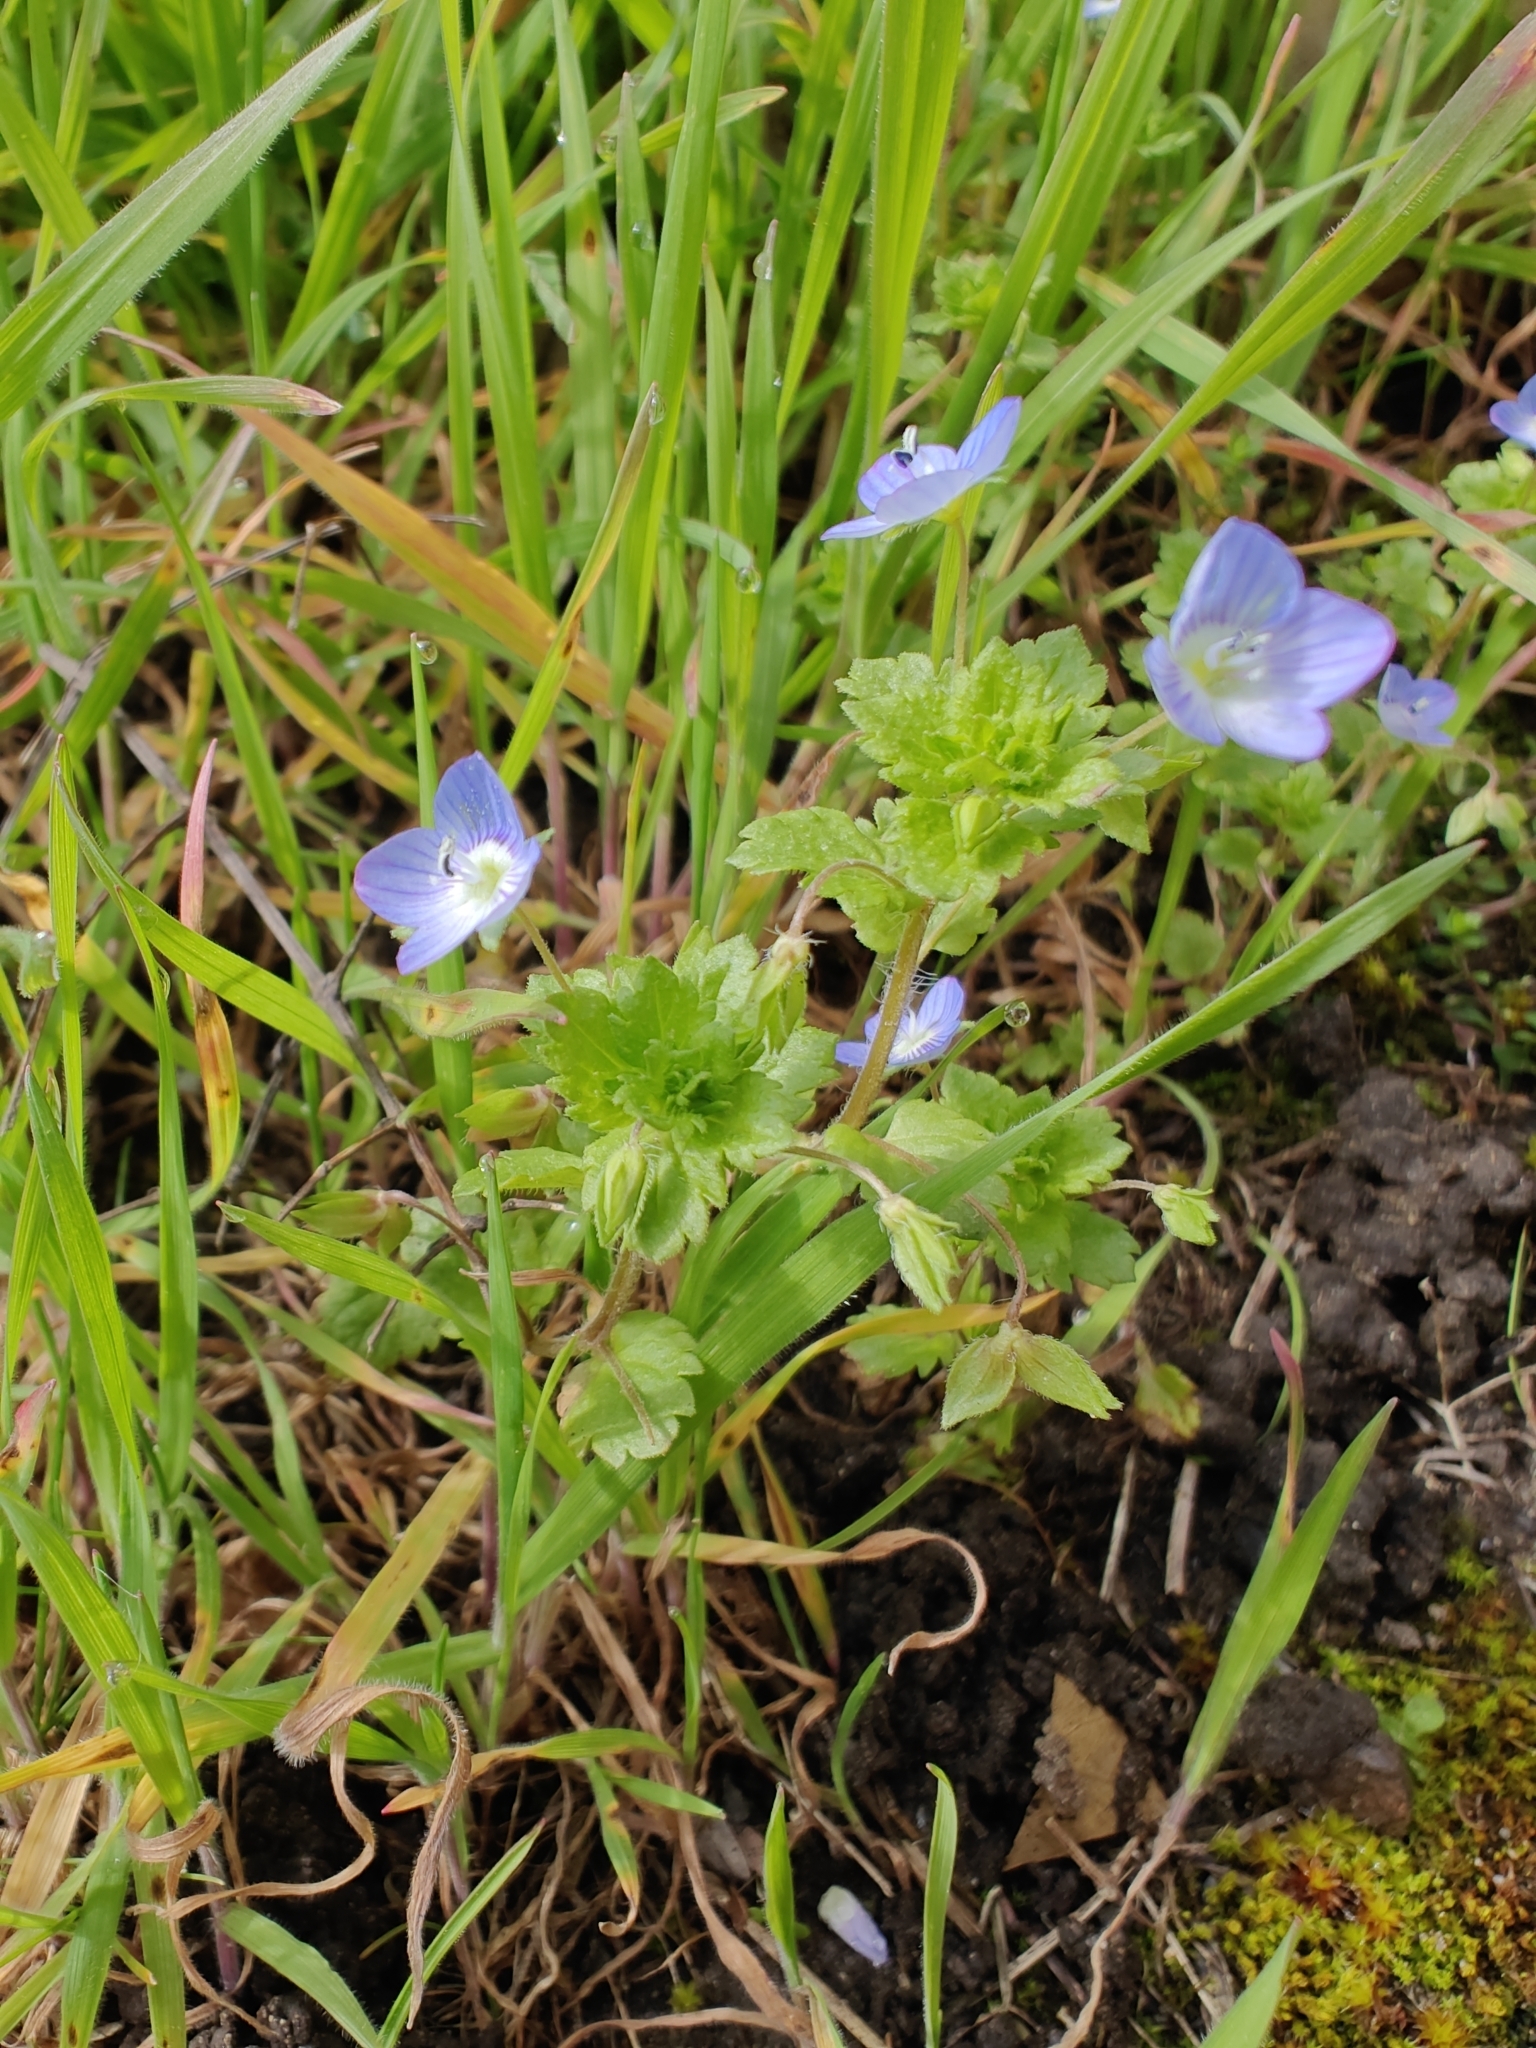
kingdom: Plantae
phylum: Tracheophyta
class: Magnoliopsida
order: Lamiales
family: Plantaginaceae
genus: Veronica
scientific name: Veronica persica
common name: Common field-speedwell
